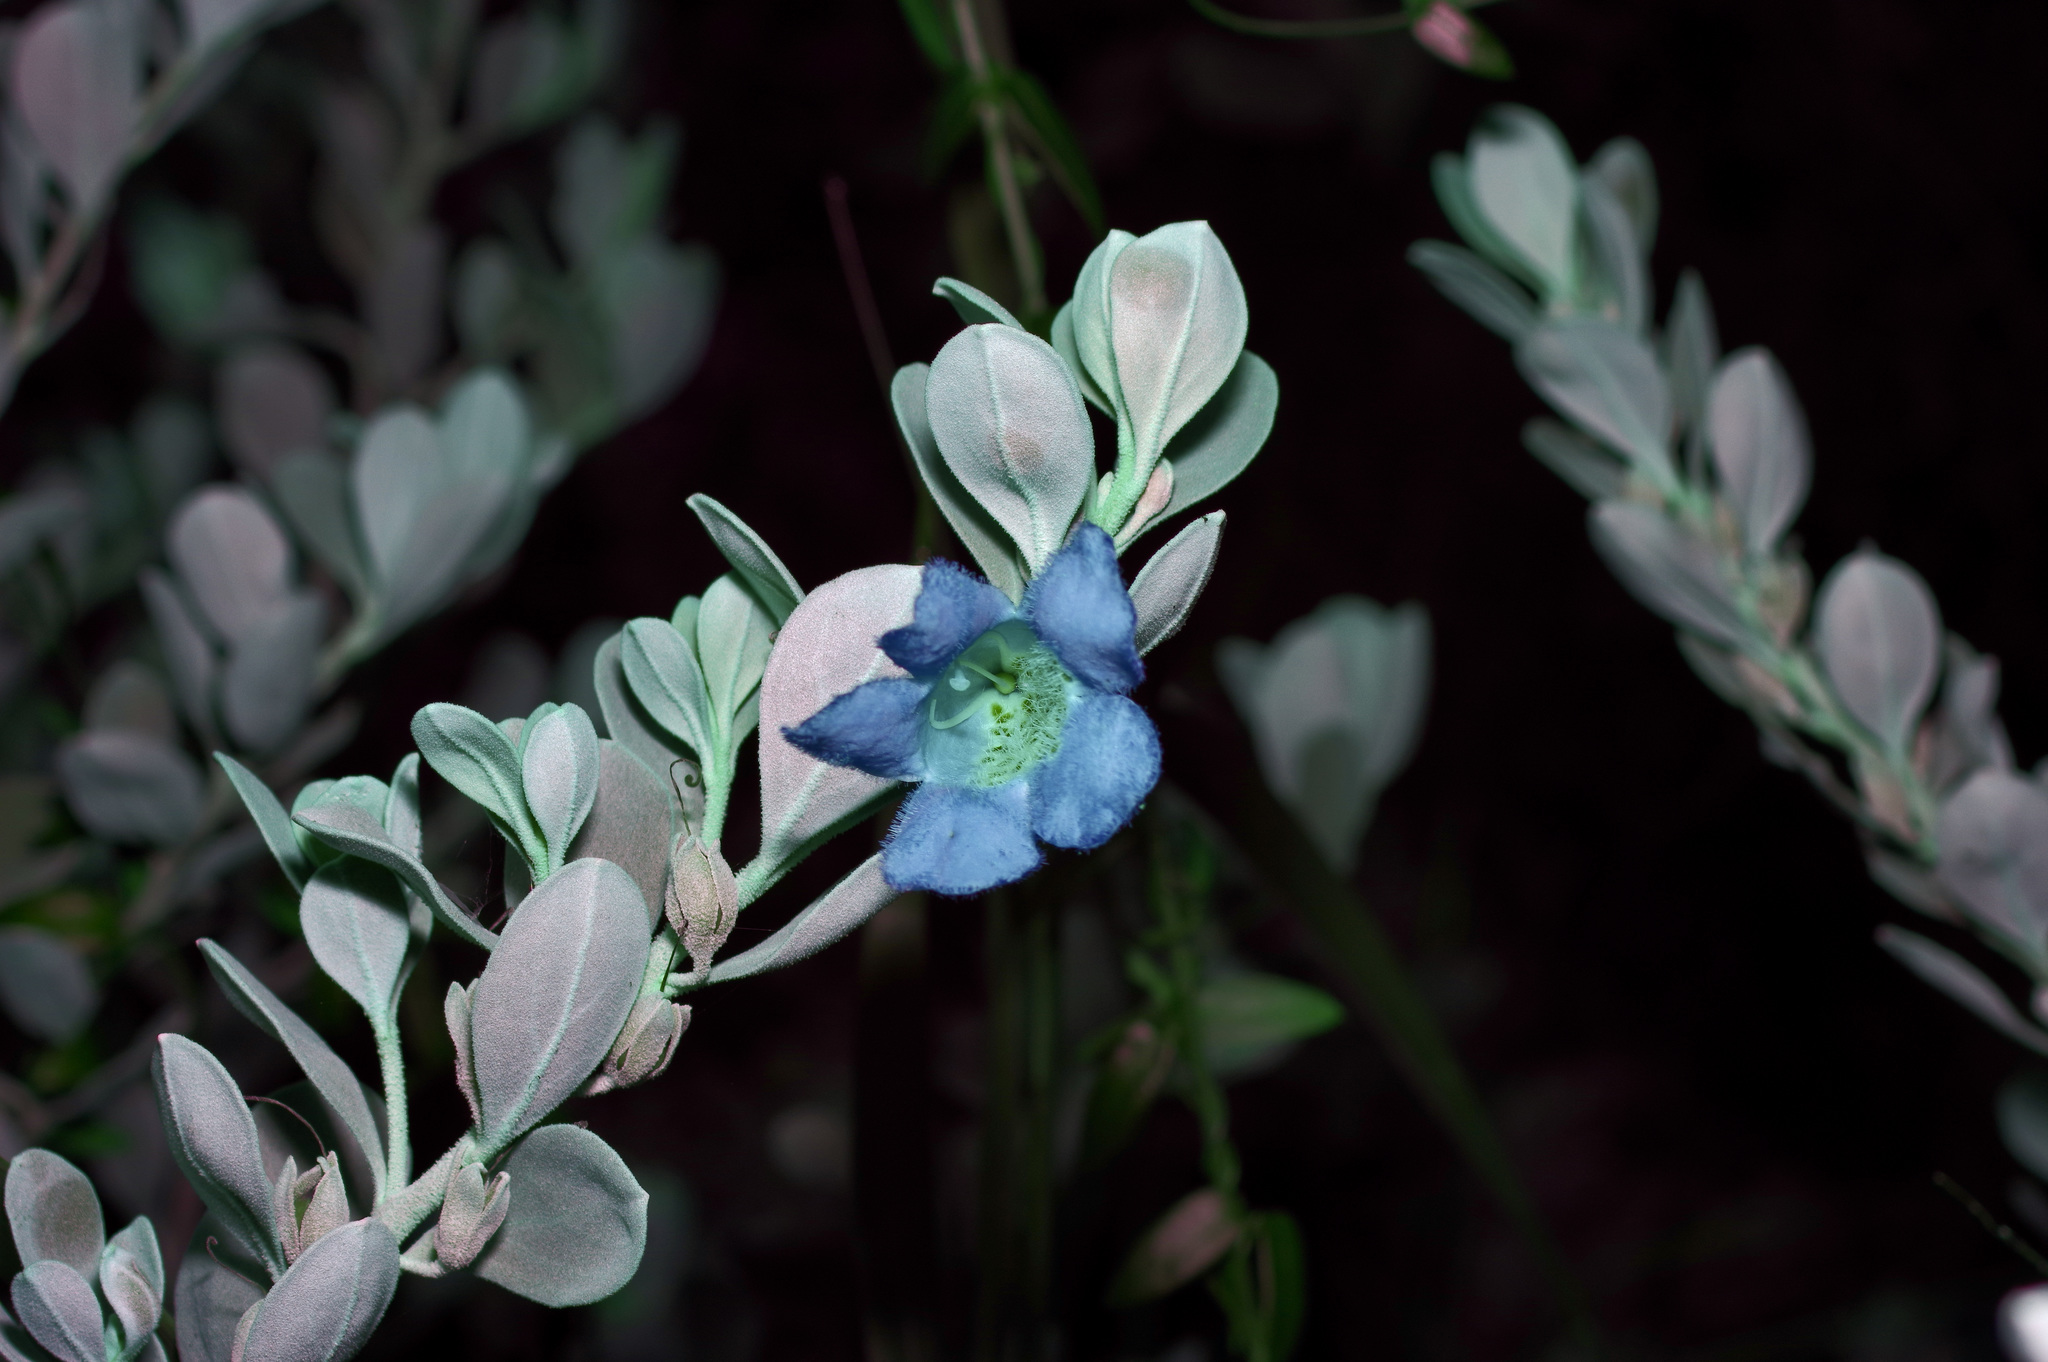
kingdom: Plantae
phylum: Tracheophyta
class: Magnoliopsida
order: Lamiales
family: Scrophulariaceae
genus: Leucophyllum
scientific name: Leucophyllum frutescens
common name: Texas silverleaf
